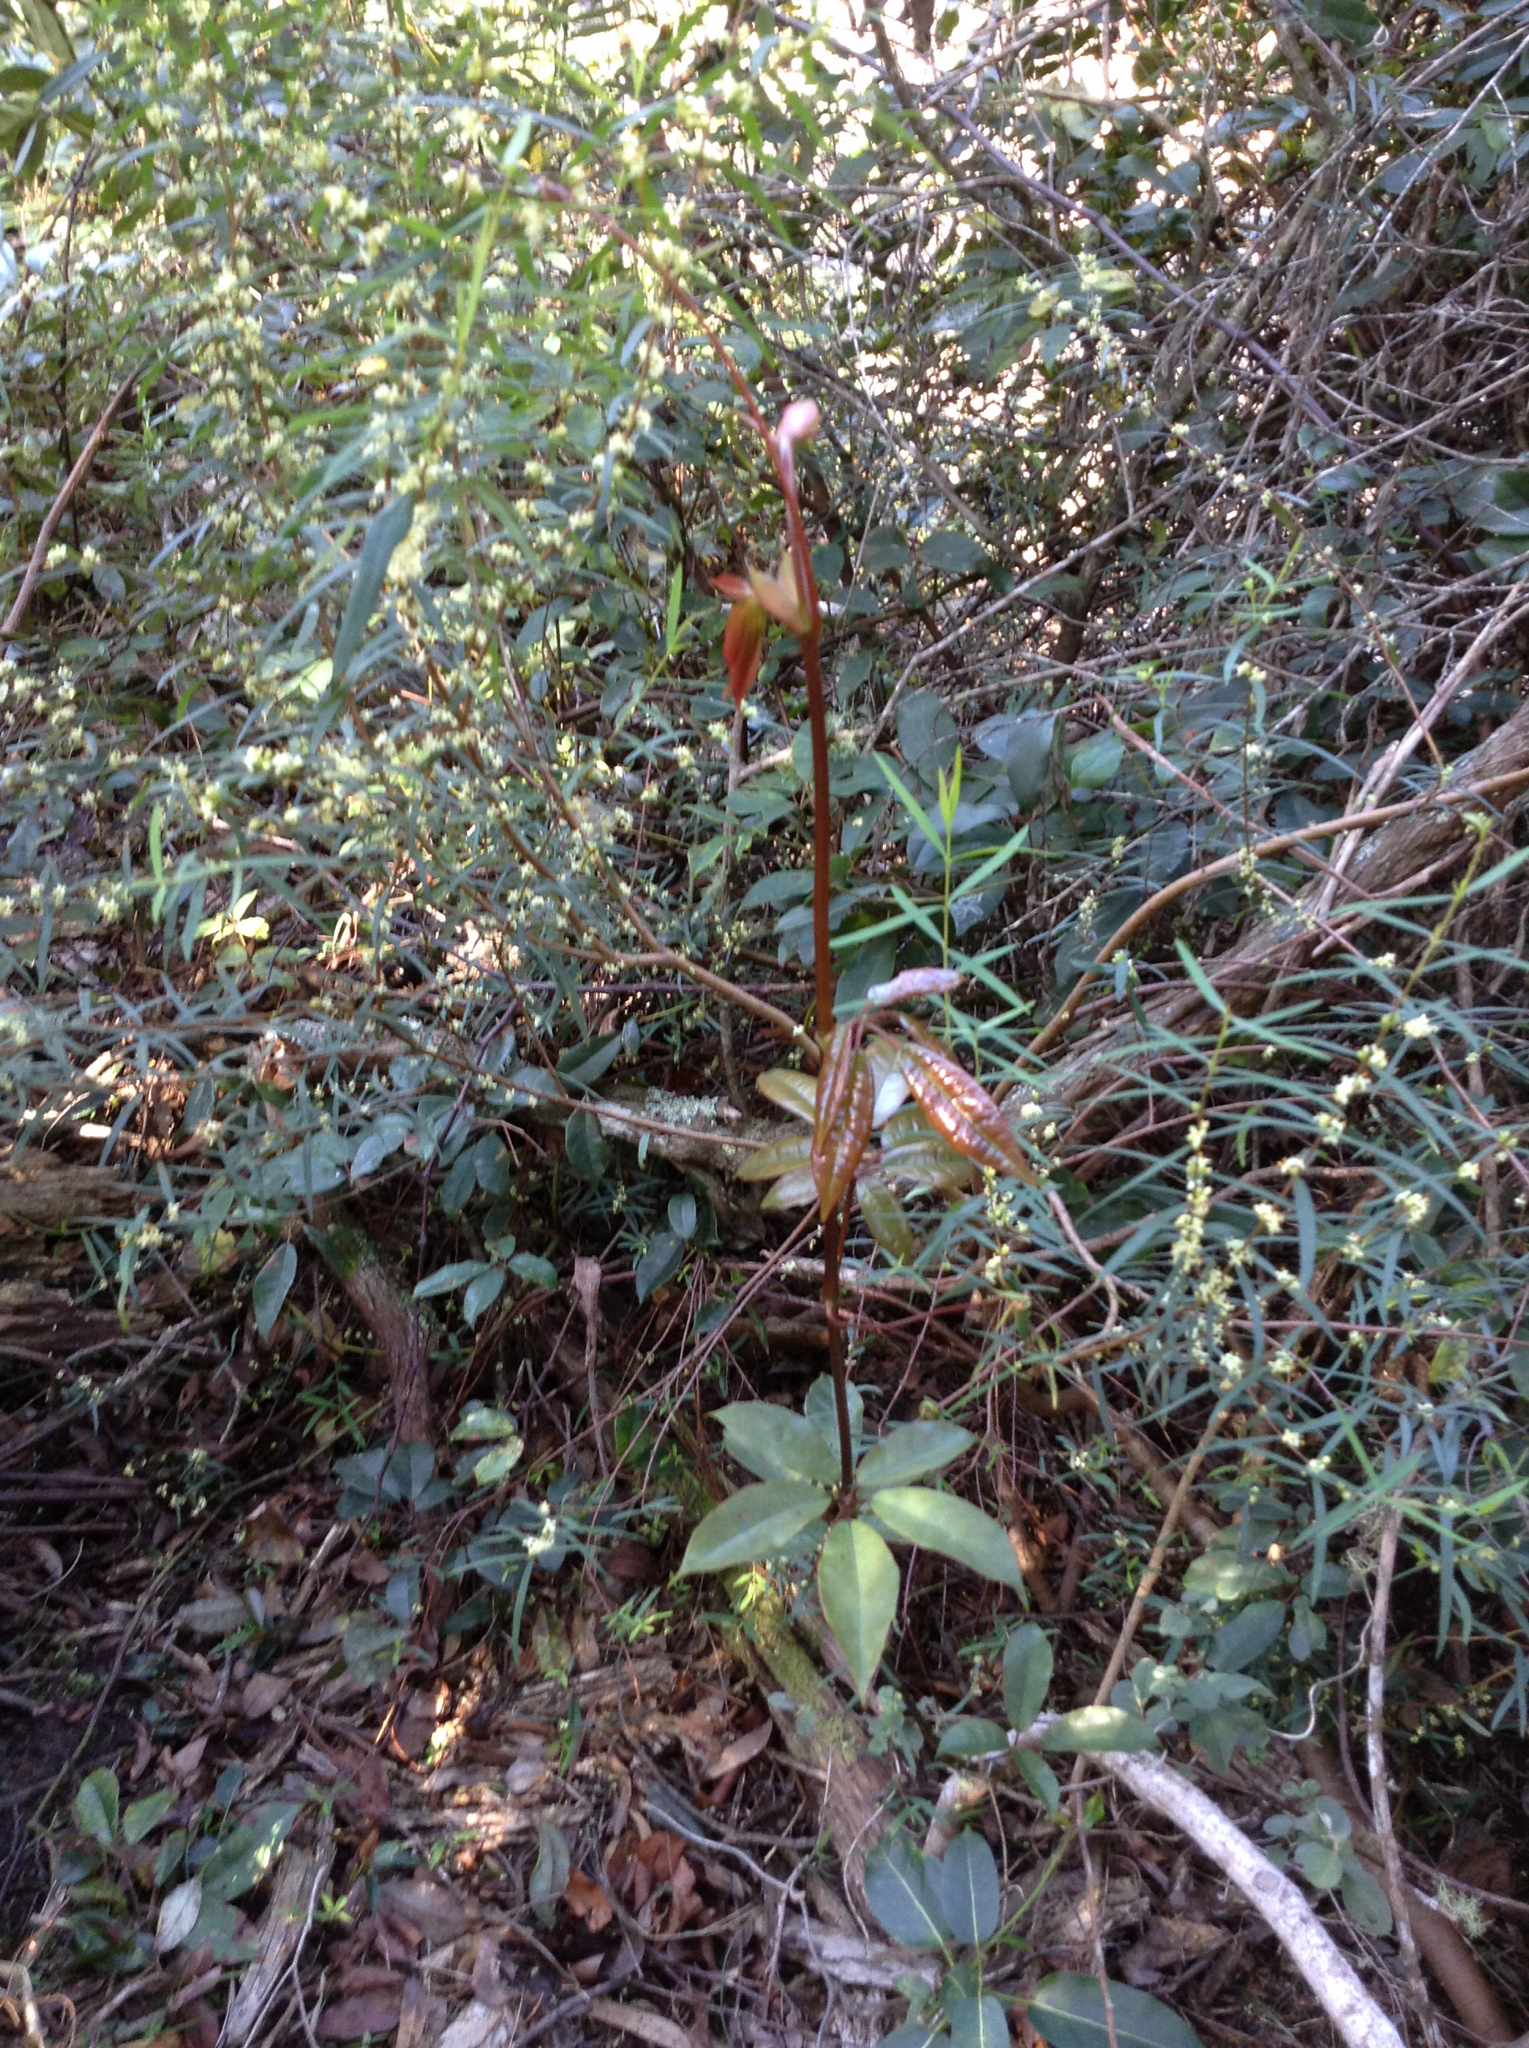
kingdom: Plantae
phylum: Tracheophyta
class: Magnoliopsida
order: Vitales
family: Vitaceae
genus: Nothocissus
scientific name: Nothocissus hypoglauca
